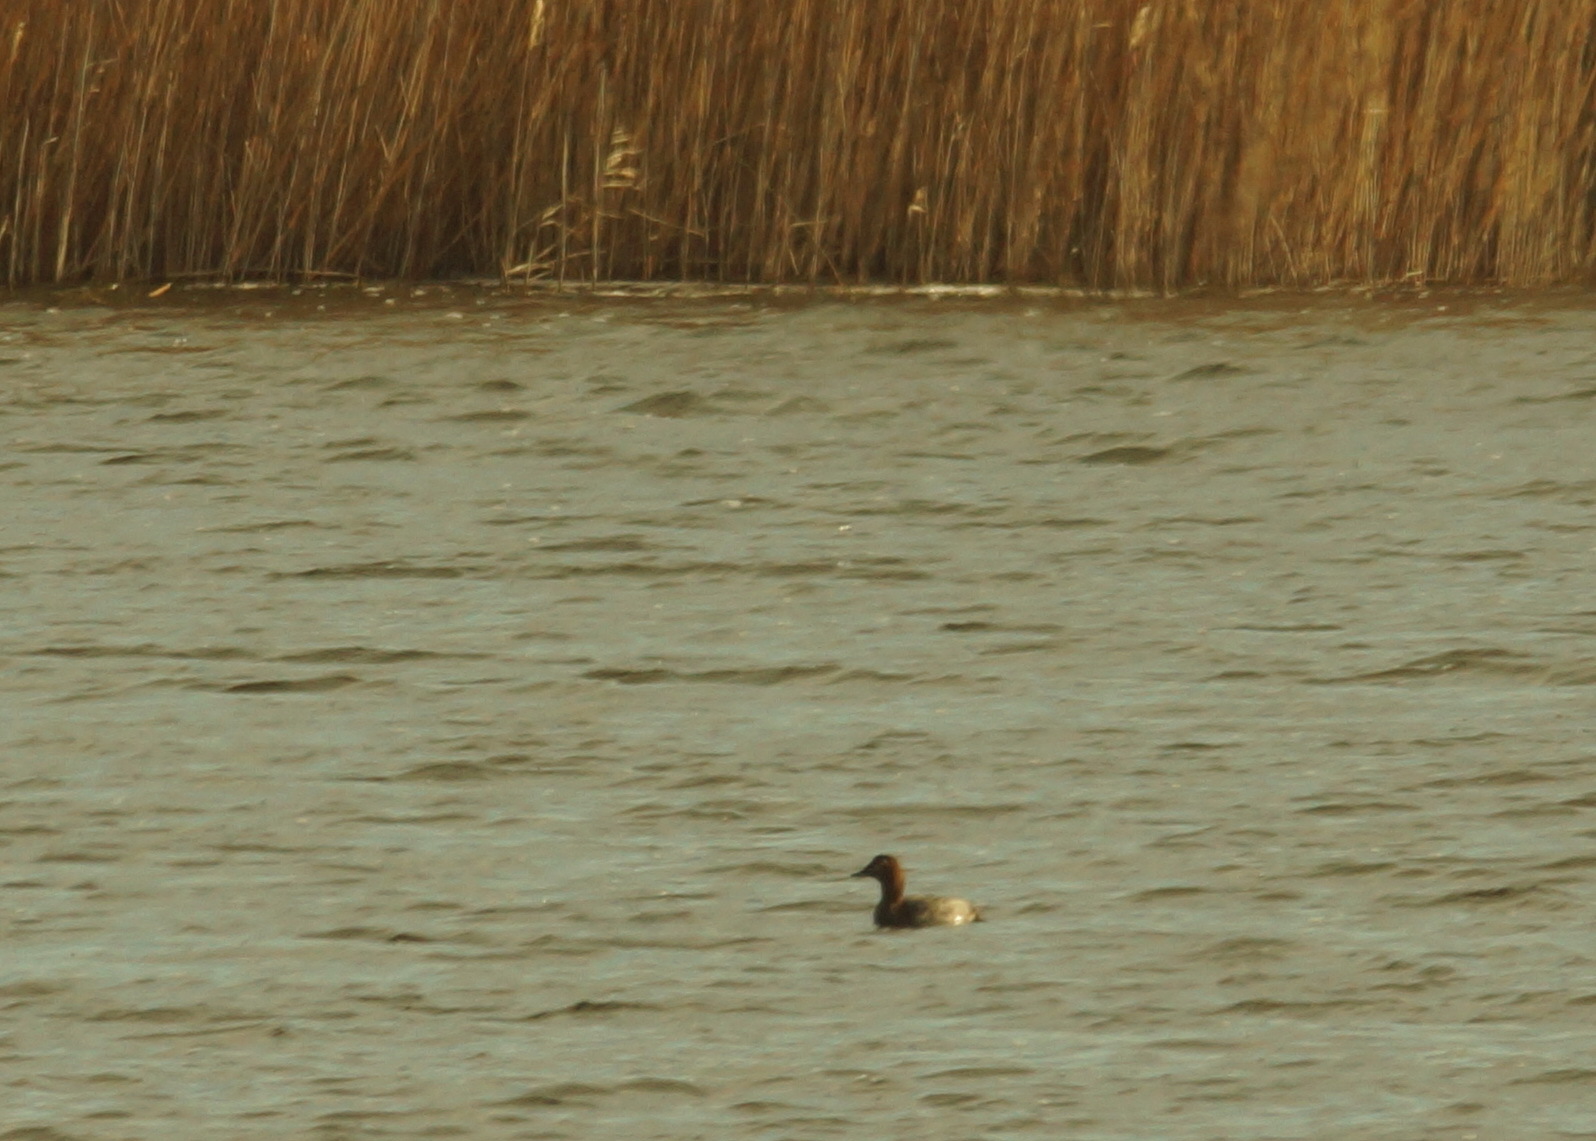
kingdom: Animalia
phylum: Chordata
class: Aves
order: Anseriformes
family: Anatidae
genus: Aythya
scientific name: Aythya ferina
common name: Common pochard
